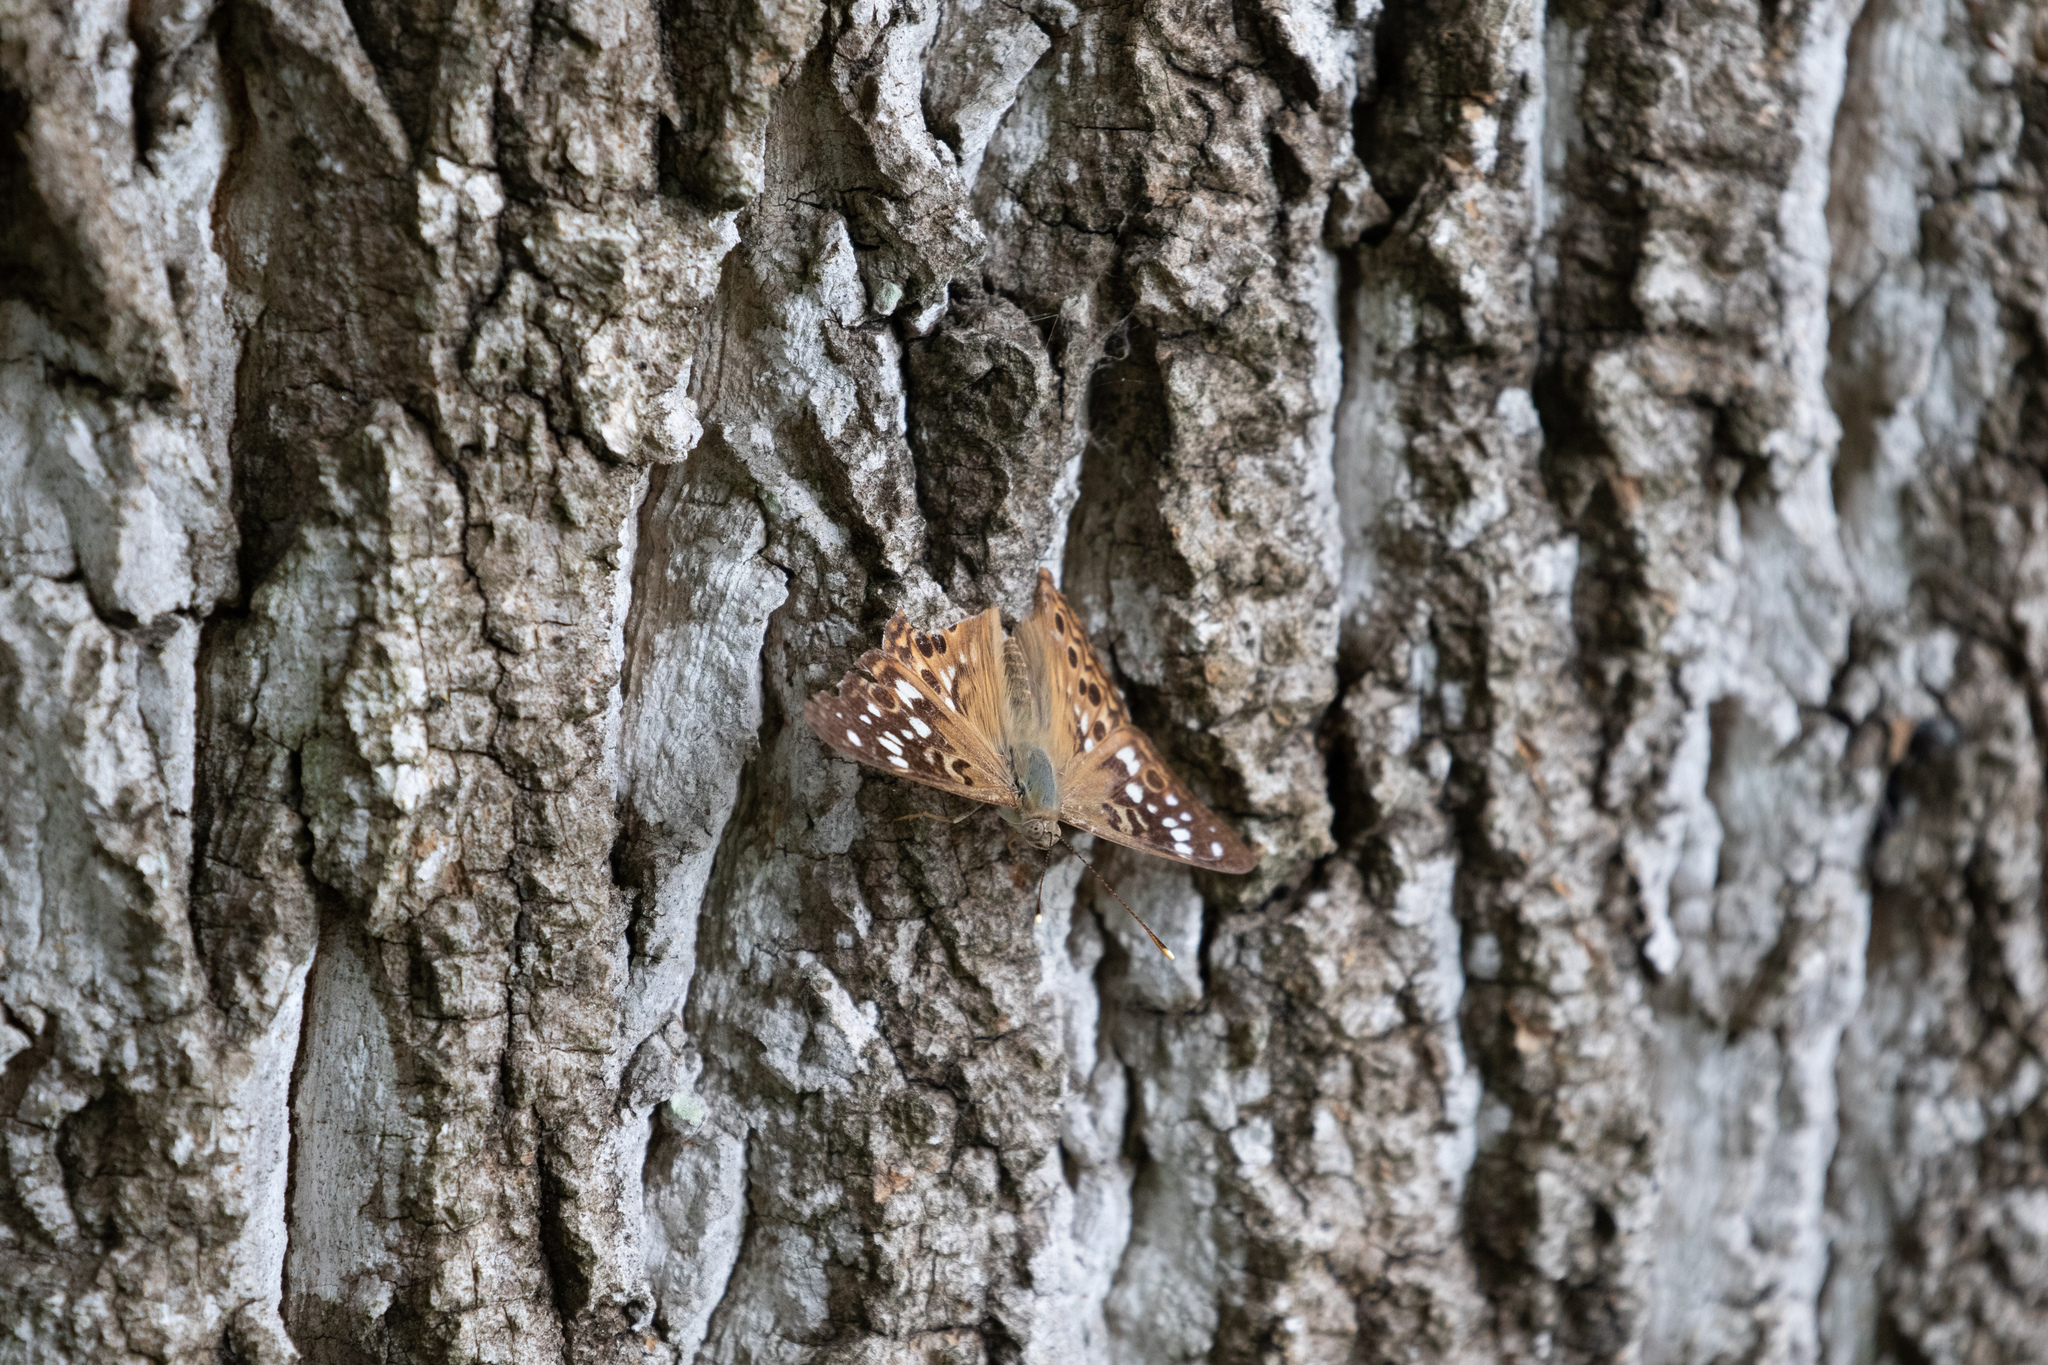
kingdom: Animalia
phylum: Arthropoda
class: Insecta
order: Lepidoptera
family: Nymphalidae
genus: Asterocampa
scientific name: Asterocampa celtis
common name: Hackberry emperor
